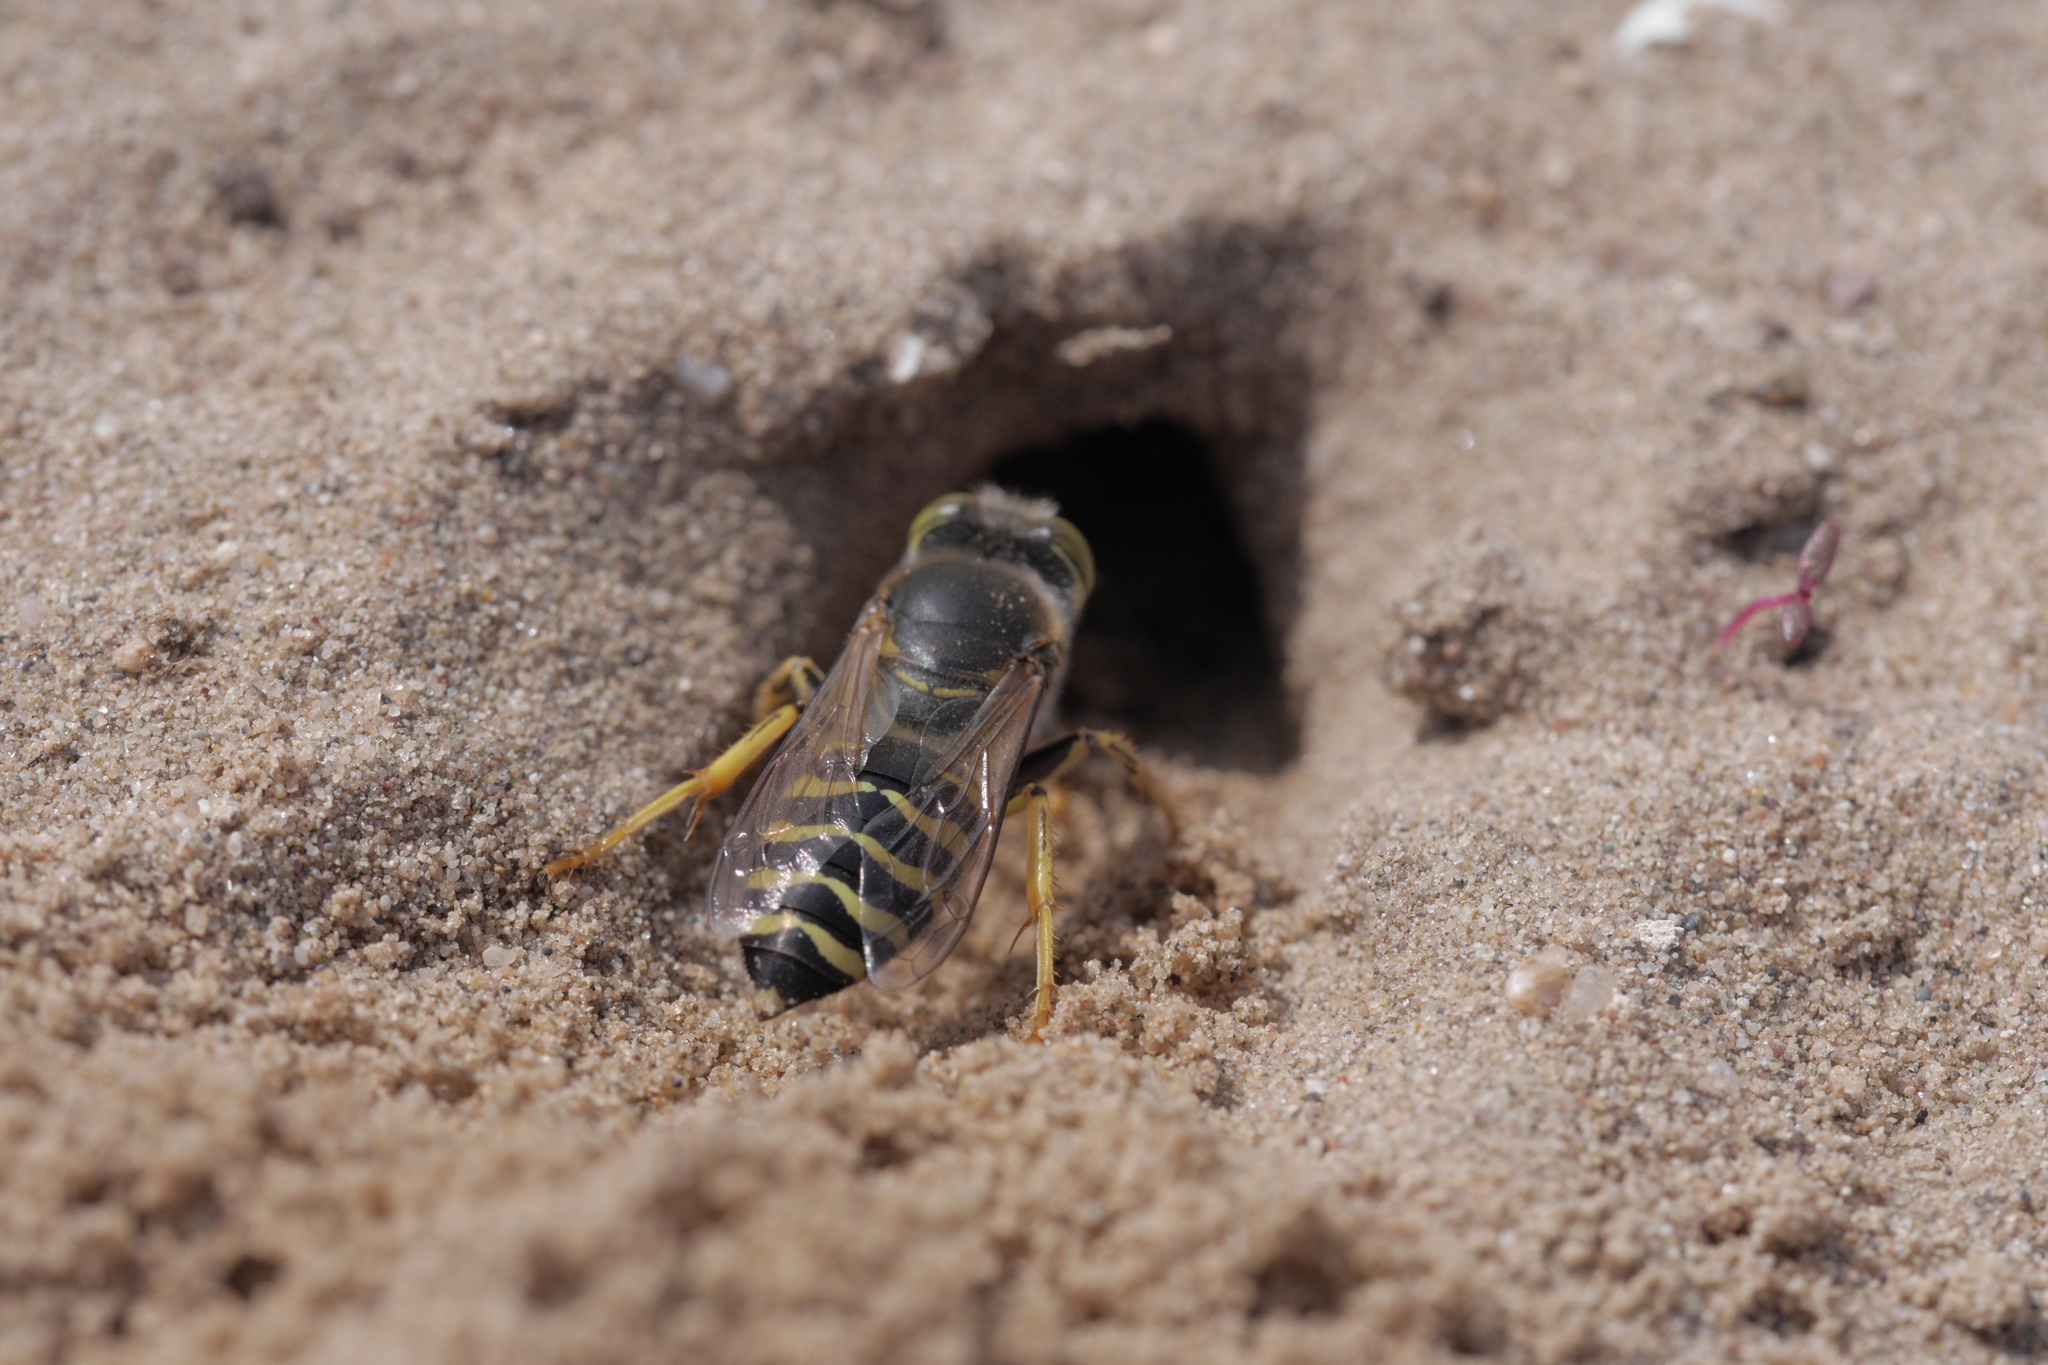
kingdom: Animalia
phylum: Arthropoda
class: Insecta
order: Hymenoptera
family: Crabronidae
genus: Bembix
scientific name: Bembix rostrata
